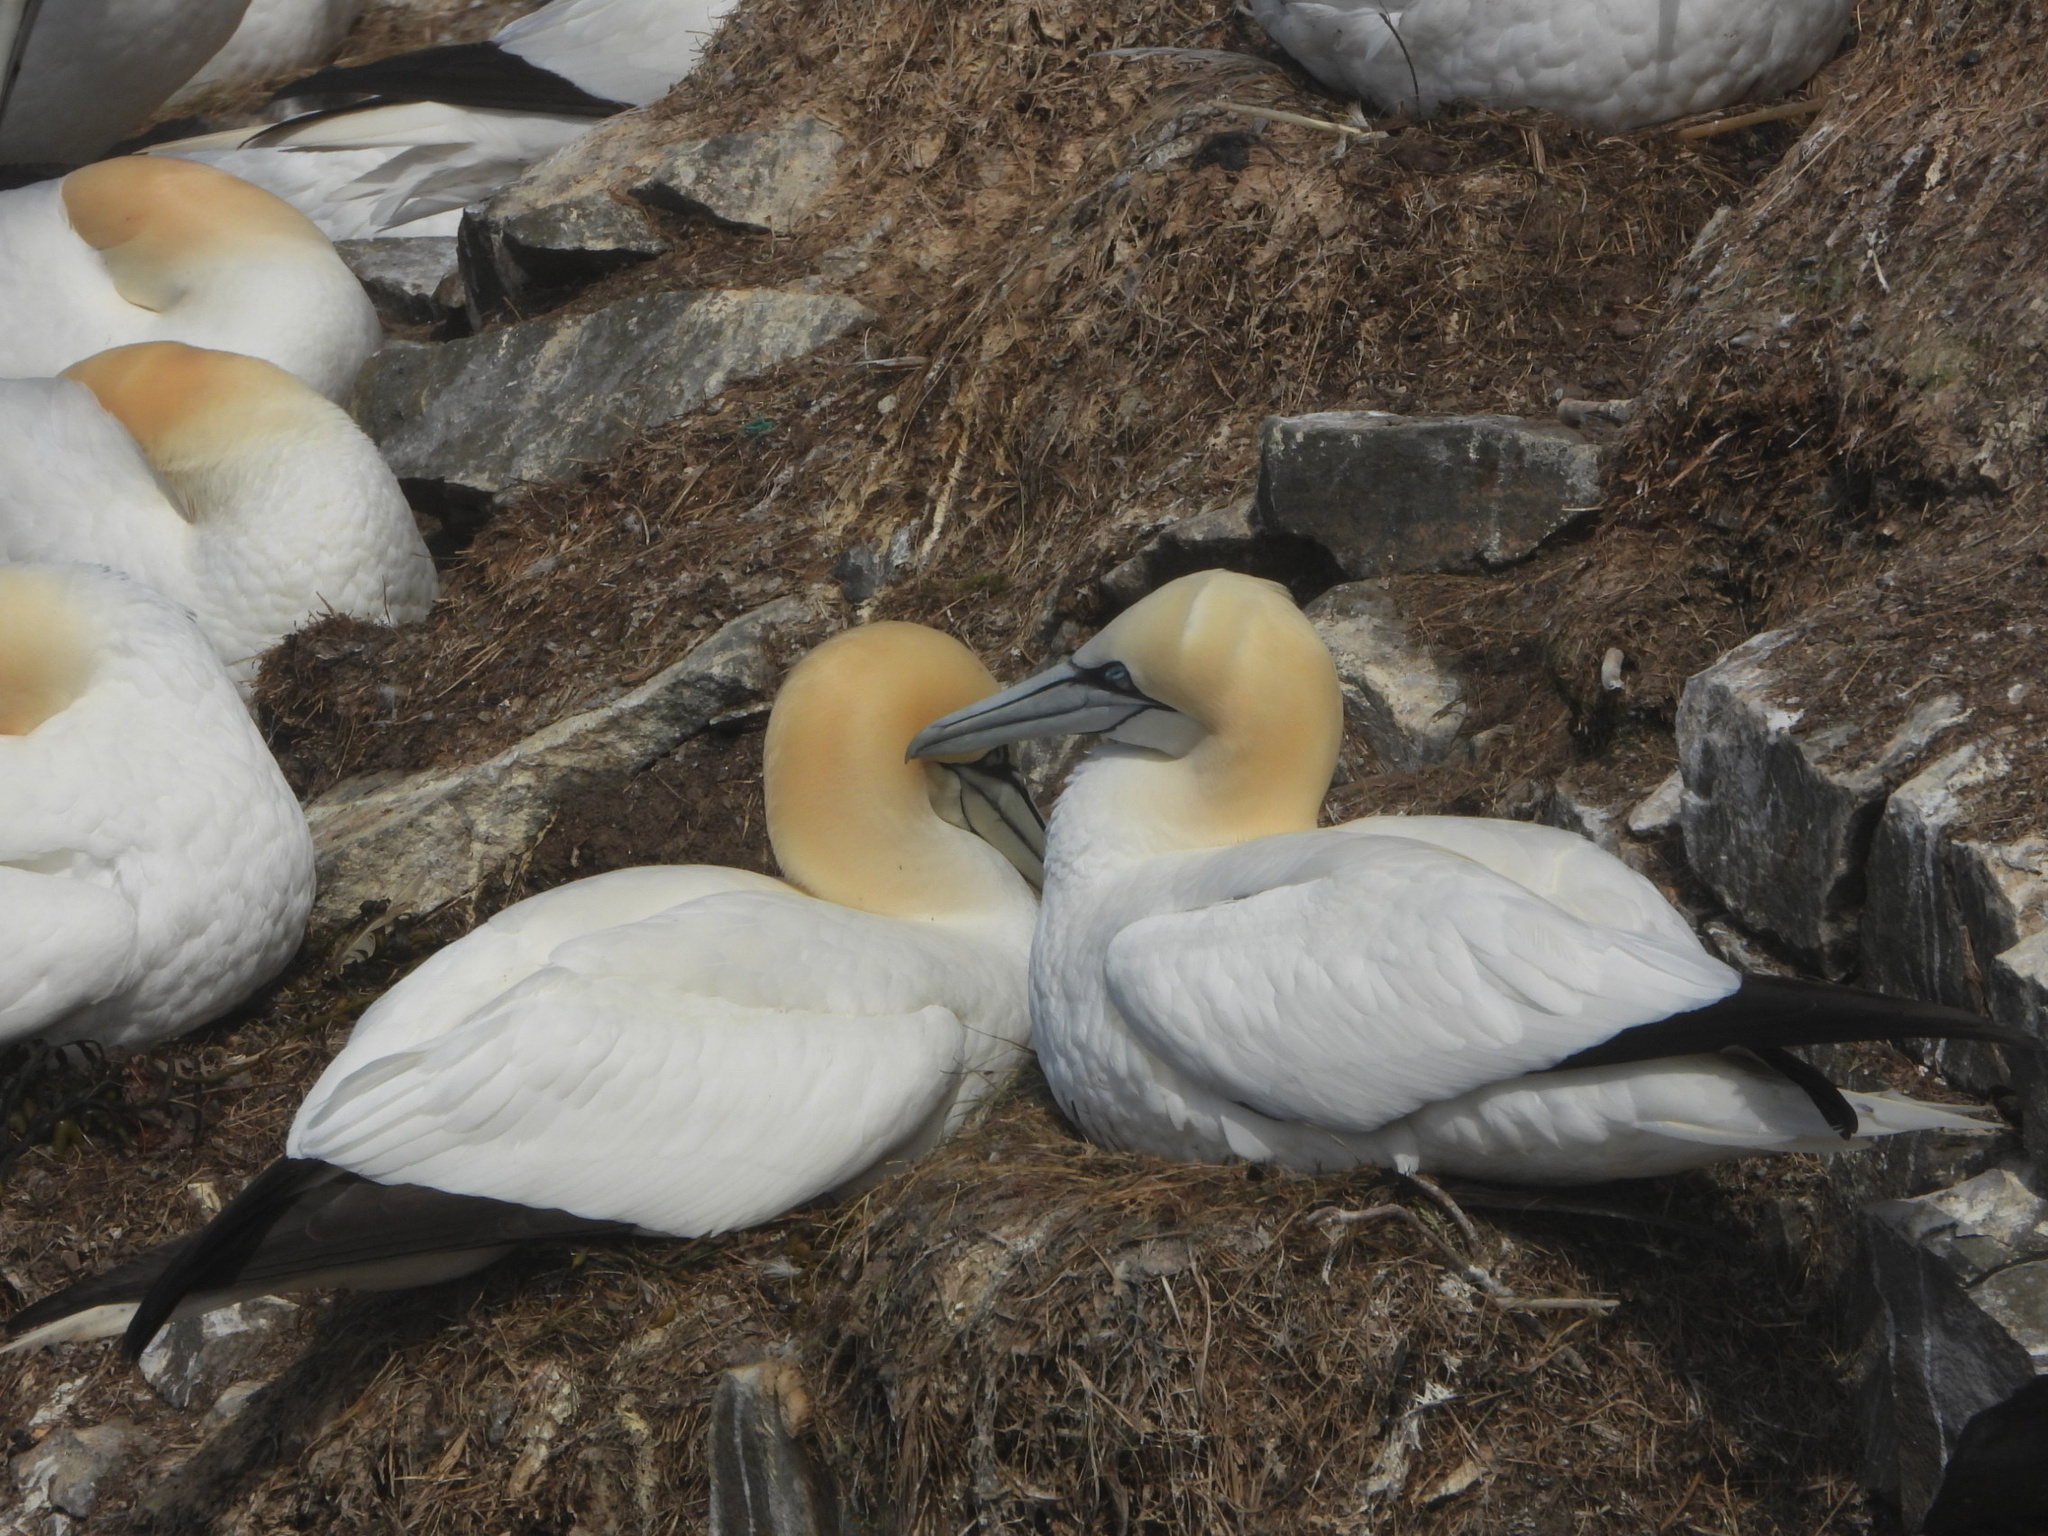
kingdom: Animalia
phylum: Chordata
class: Aves
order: Suliformes
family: Sulidae
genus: Morus
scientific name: Morus bassanus
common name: Northern gannet
